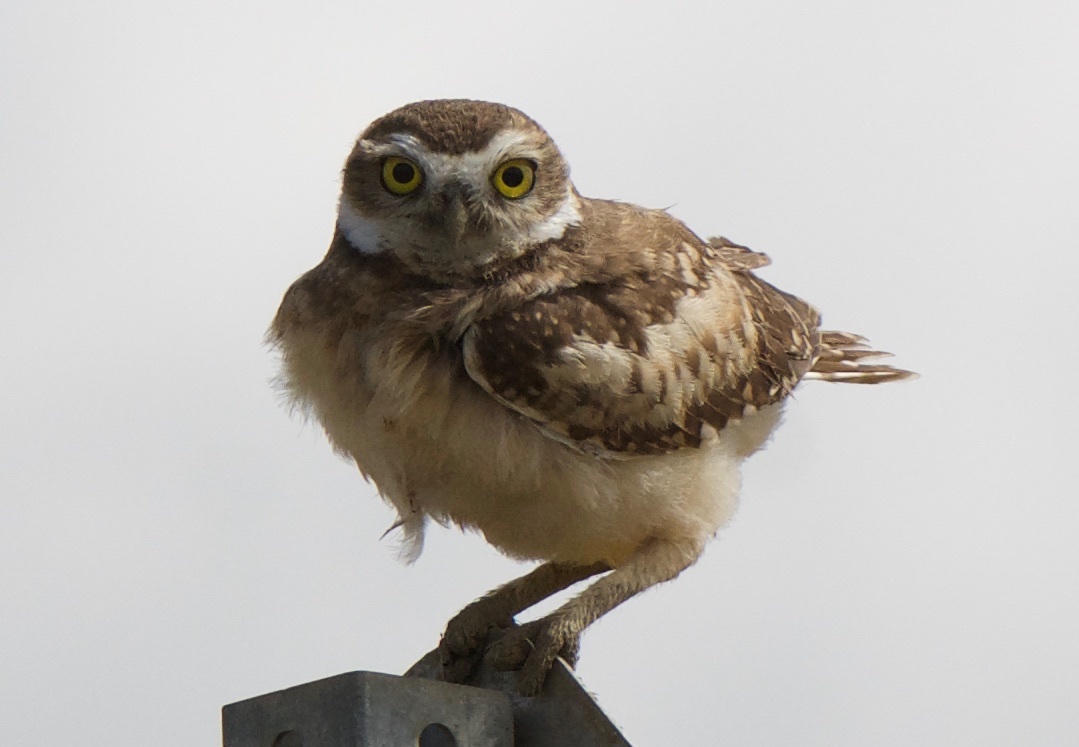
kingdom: Animalia
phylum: Chordata
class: Aves
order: Strigiformes
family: Strigidae
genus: Athene
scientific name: Athene cunicularia
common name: Burrowing owl
